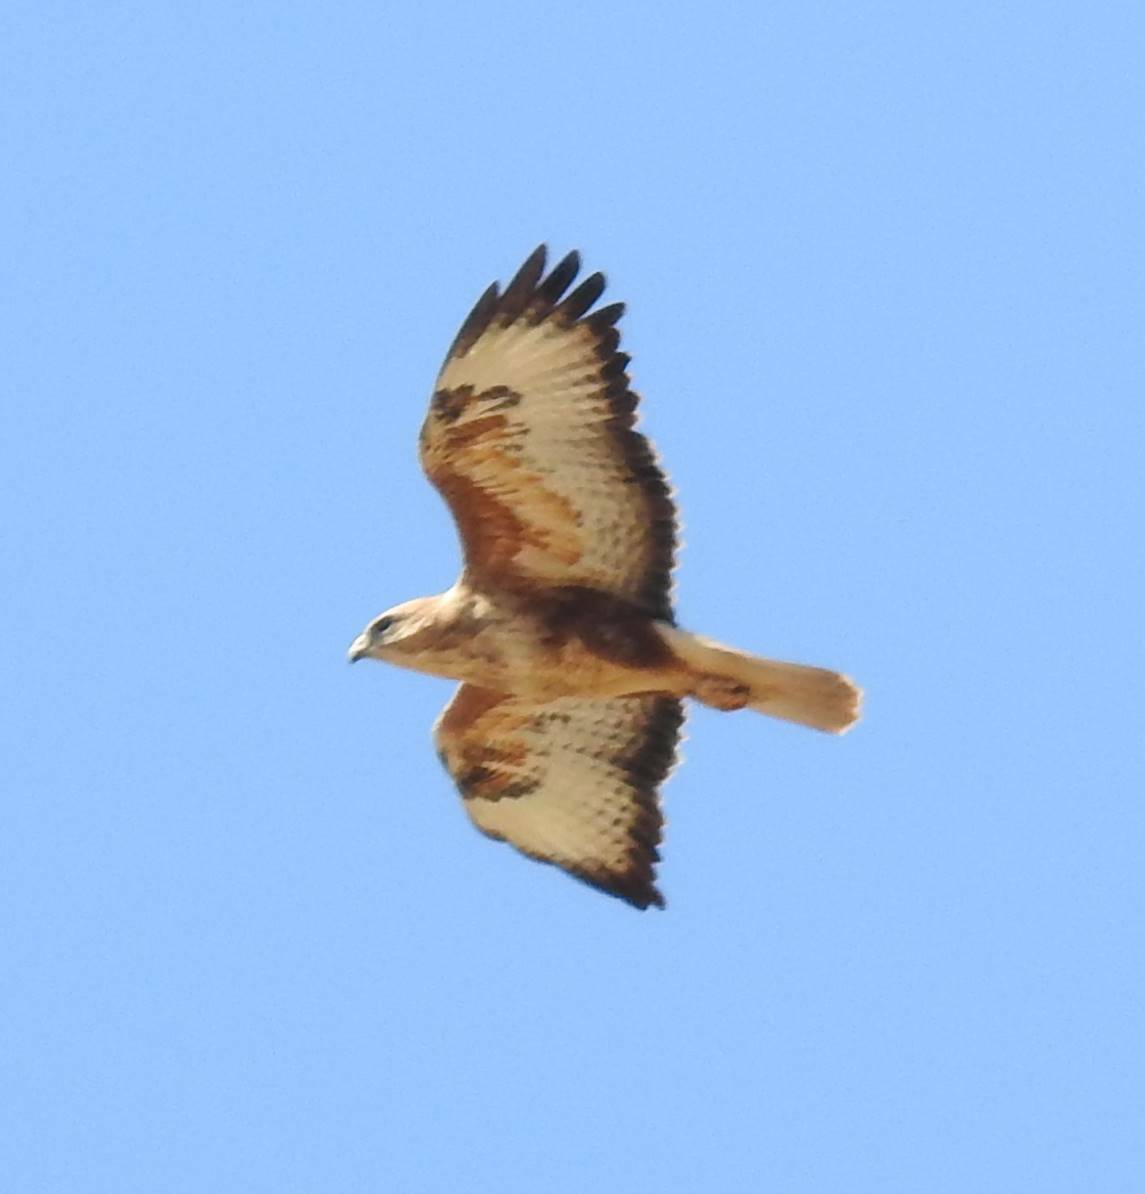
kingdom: Animalia
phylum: Chordata
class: Aves
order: Accipitriformes
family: Accipitridae
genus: Buteo
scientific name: Buteo rufinus
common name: Long-legged buzzard
